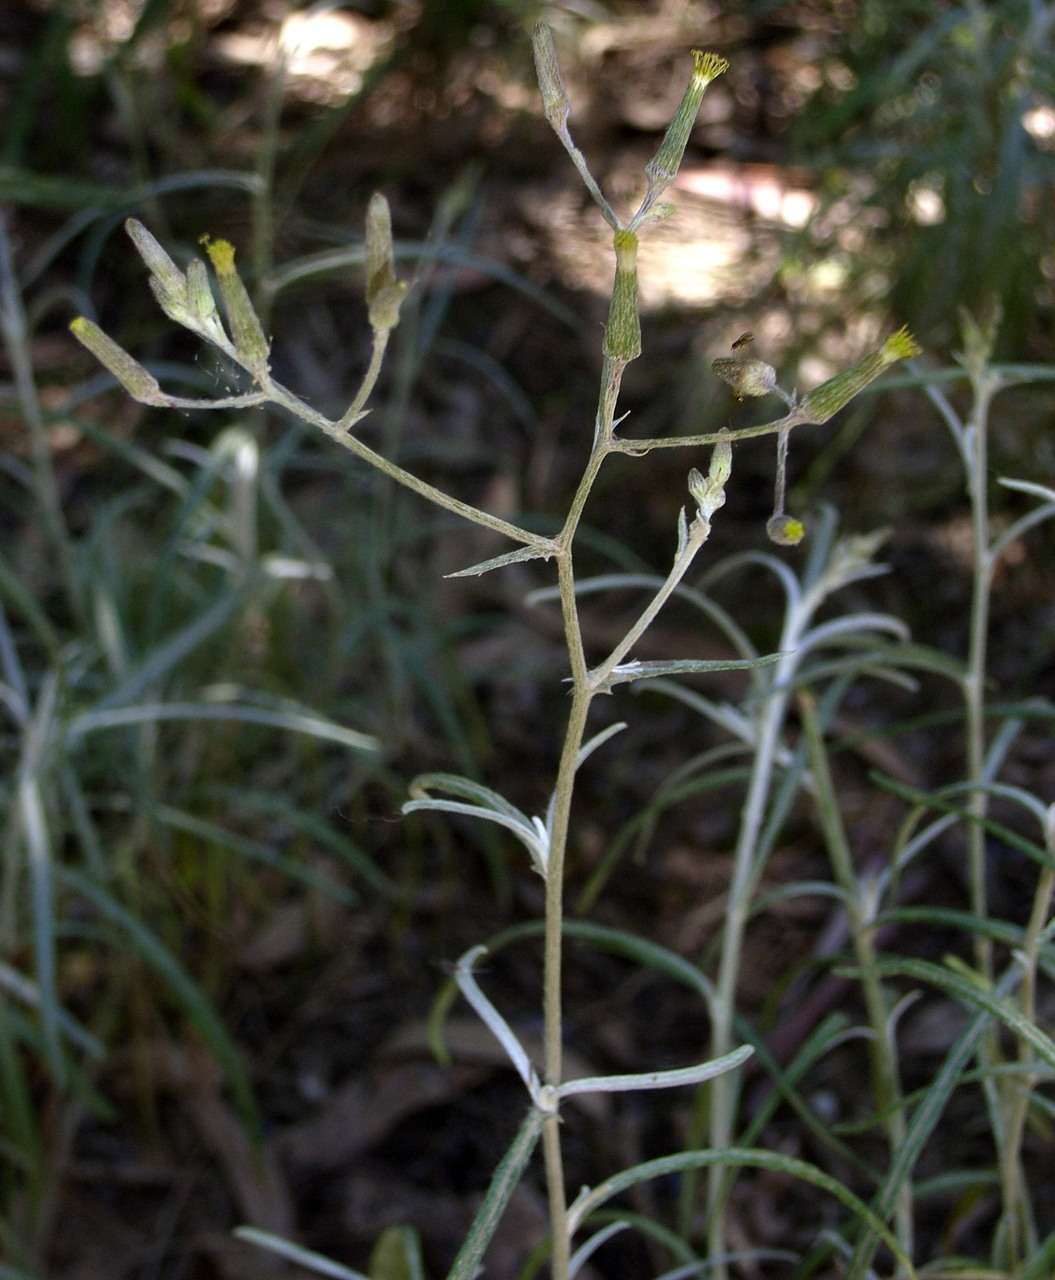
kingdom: Plantae
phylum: Tracheophyta
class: Magnoliopsida
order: Asterales
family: Asteraceae
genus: Senecio
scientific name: Senecio quadridentatus
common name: Cotton fireweed
